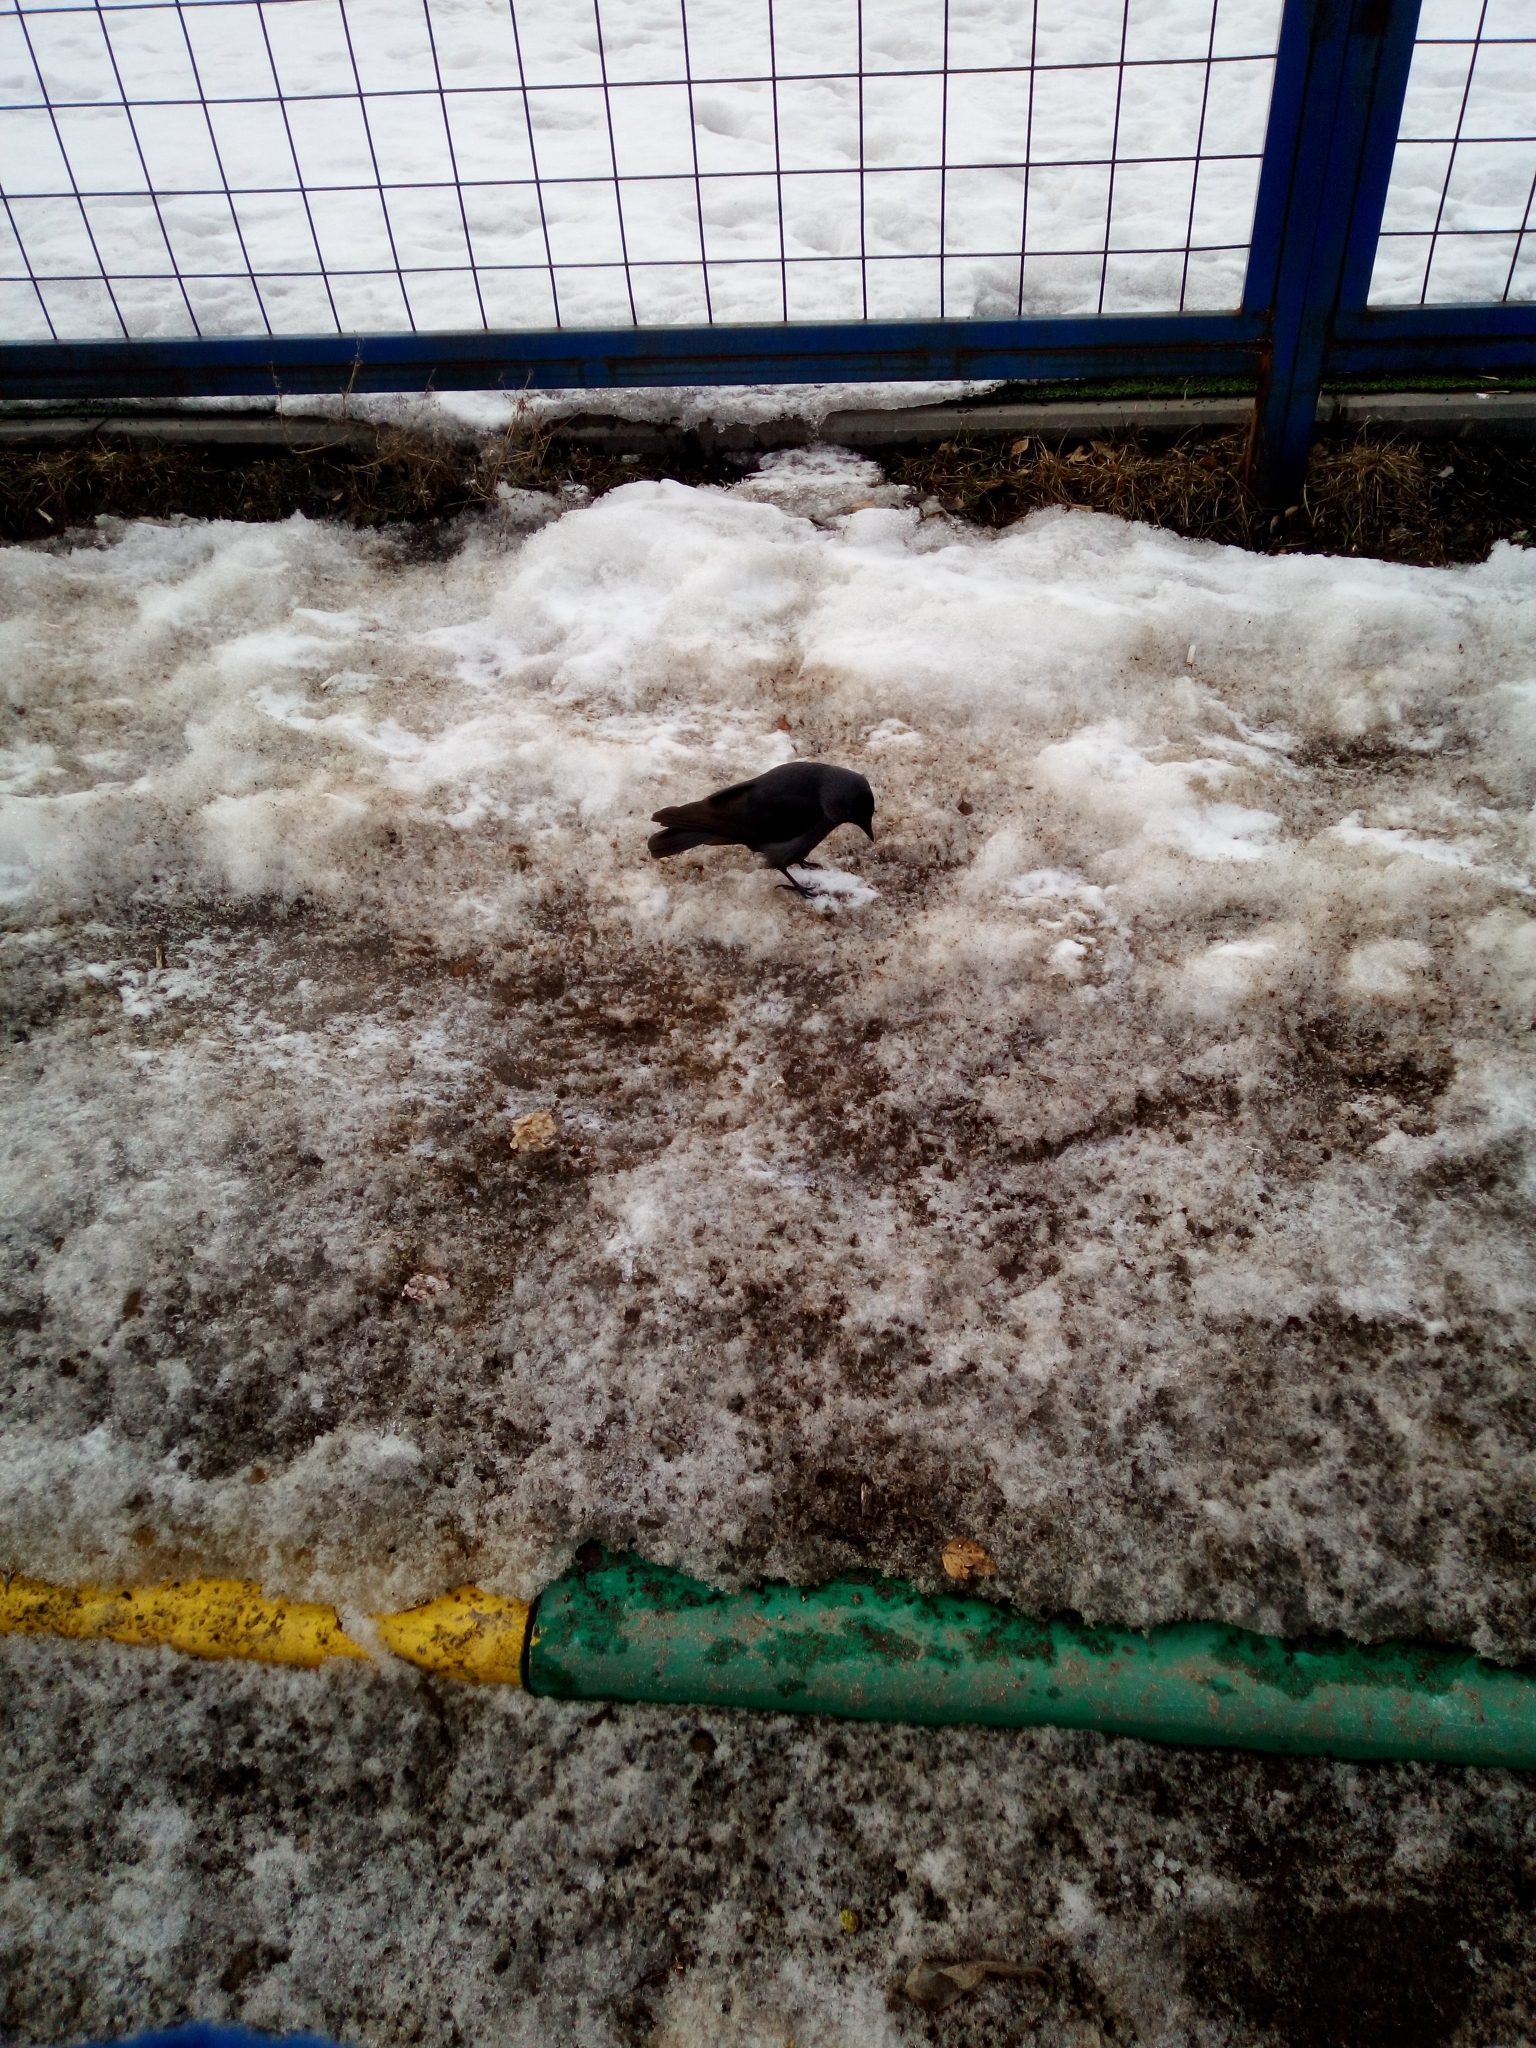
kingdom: Animalia
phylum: Chordata
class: Aves
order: Passeriformes
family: Corvidae
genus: Coloeus
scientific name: Coloeus monedula
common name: Western jackdaw
